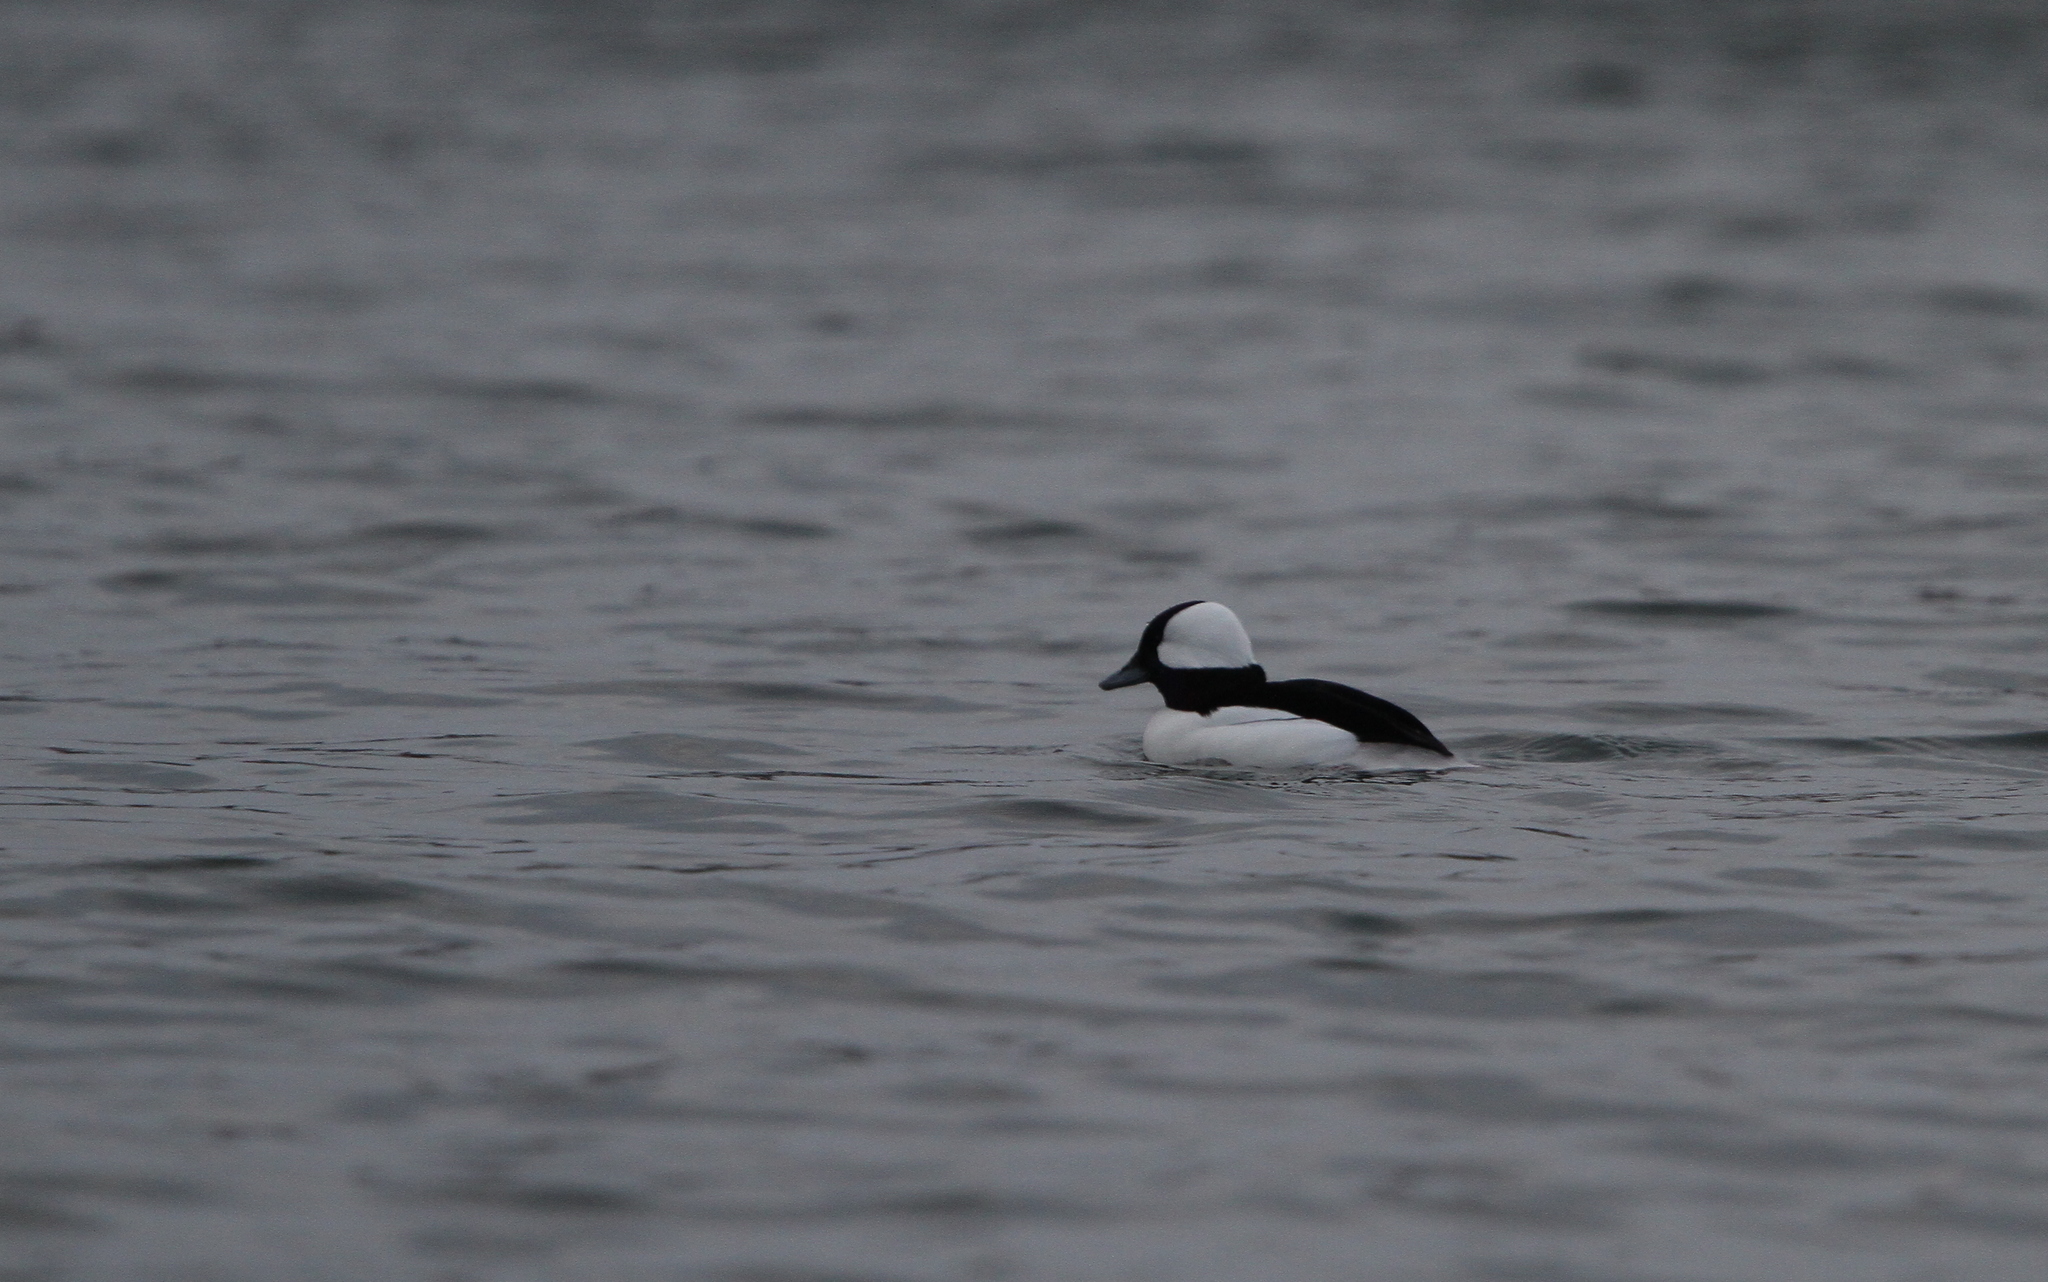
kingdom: Animalia
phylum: Chordata
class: Aves
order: Anseriformes
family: Anatidae
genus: Bucephala
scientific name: Bucephala albeola
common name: Bufflehead
